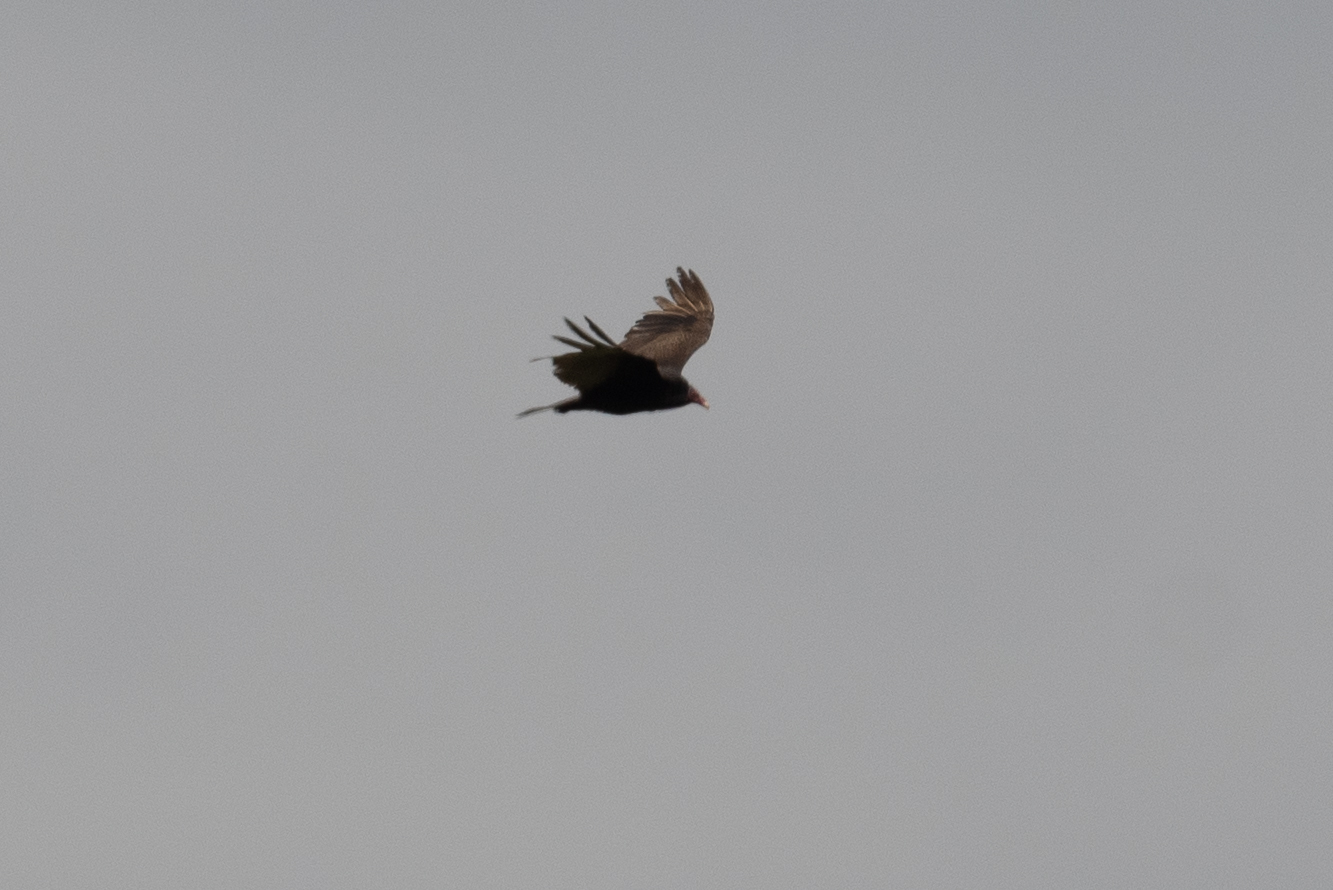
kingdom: Animalia
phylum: Chordata
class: Aves
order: Accipitriformes
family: Cathartidae
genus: Cathartes
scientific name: Cathartes aura
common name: Turkey vulture
